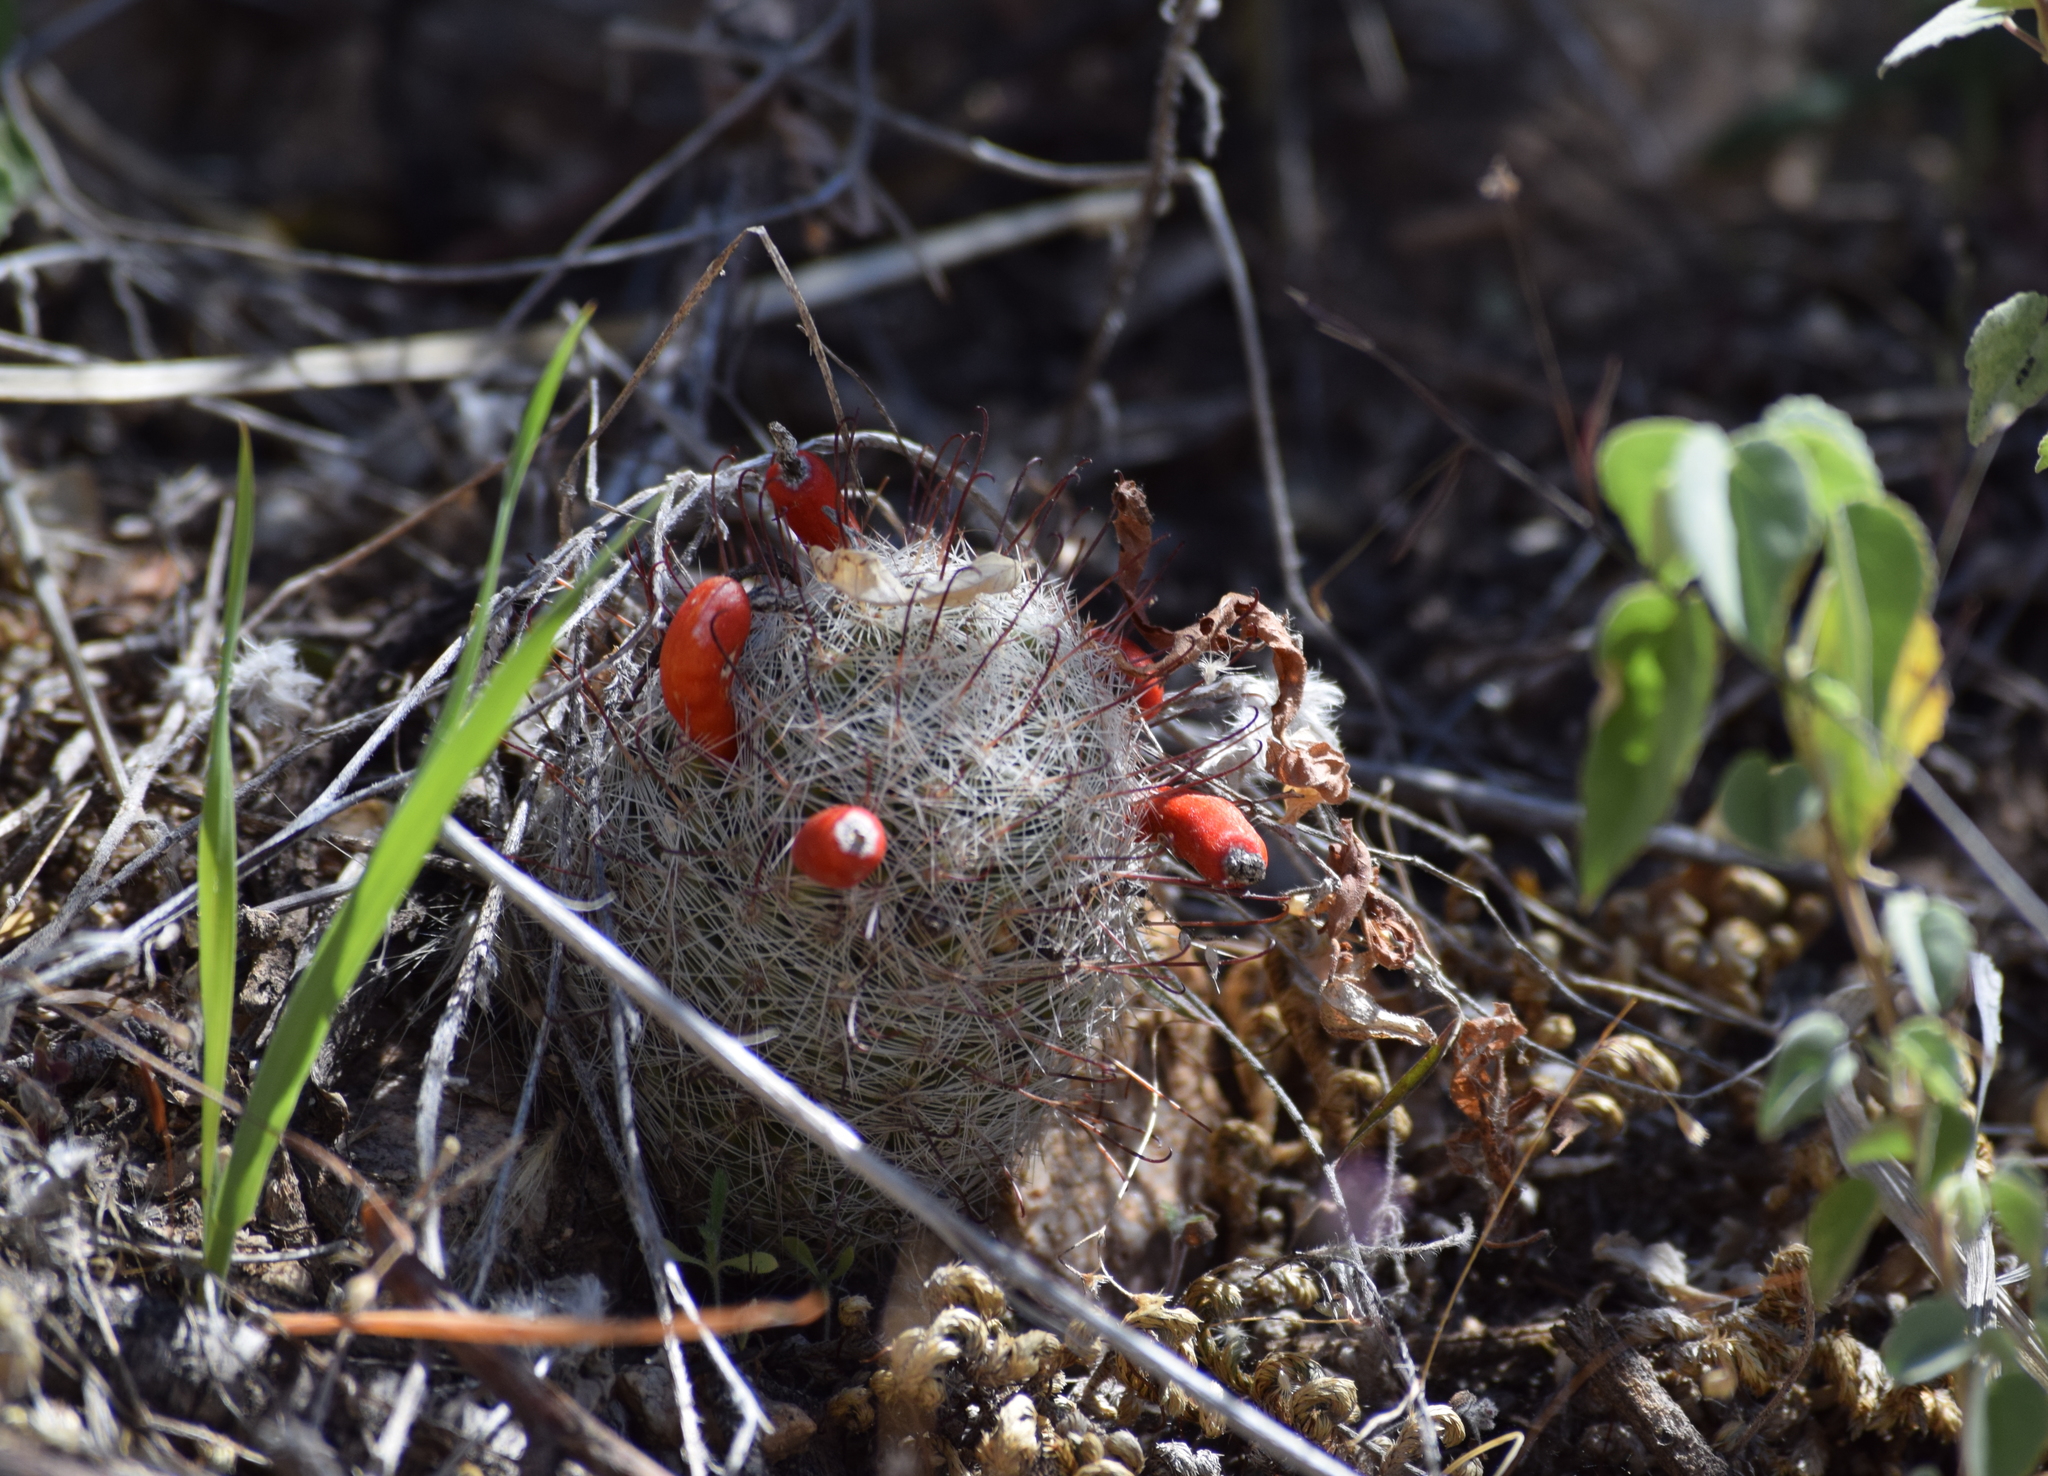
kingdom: Plantae
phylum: Tracheophyta
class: Magnoliopsida
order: Caryophyllales
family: Cactaceae
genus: Cochemiea
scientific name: Cochemiea grahamii
